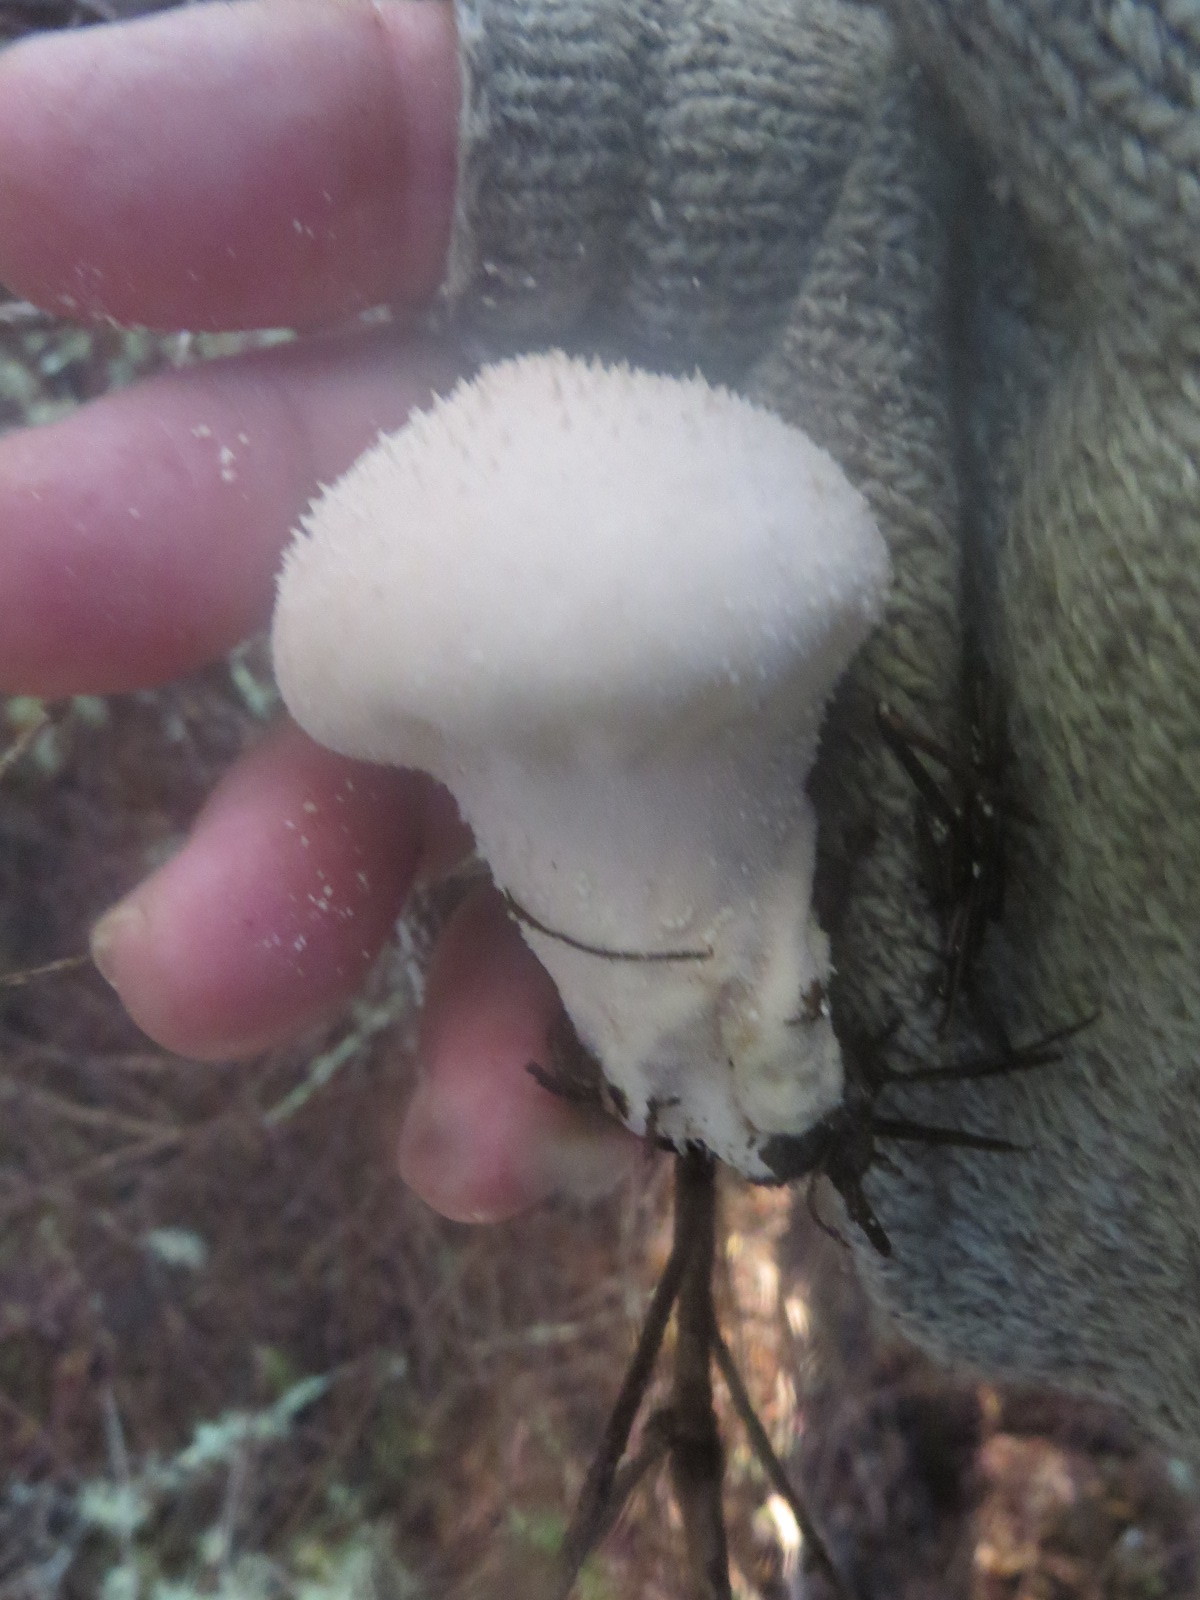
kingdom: Fungi
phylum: Basidiomycota
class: Agaricomycetes
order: Agaricales
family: Lycoperdaceae
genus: Lycoperdon
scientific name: Lycoperdon perlatum
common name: Common puffball
